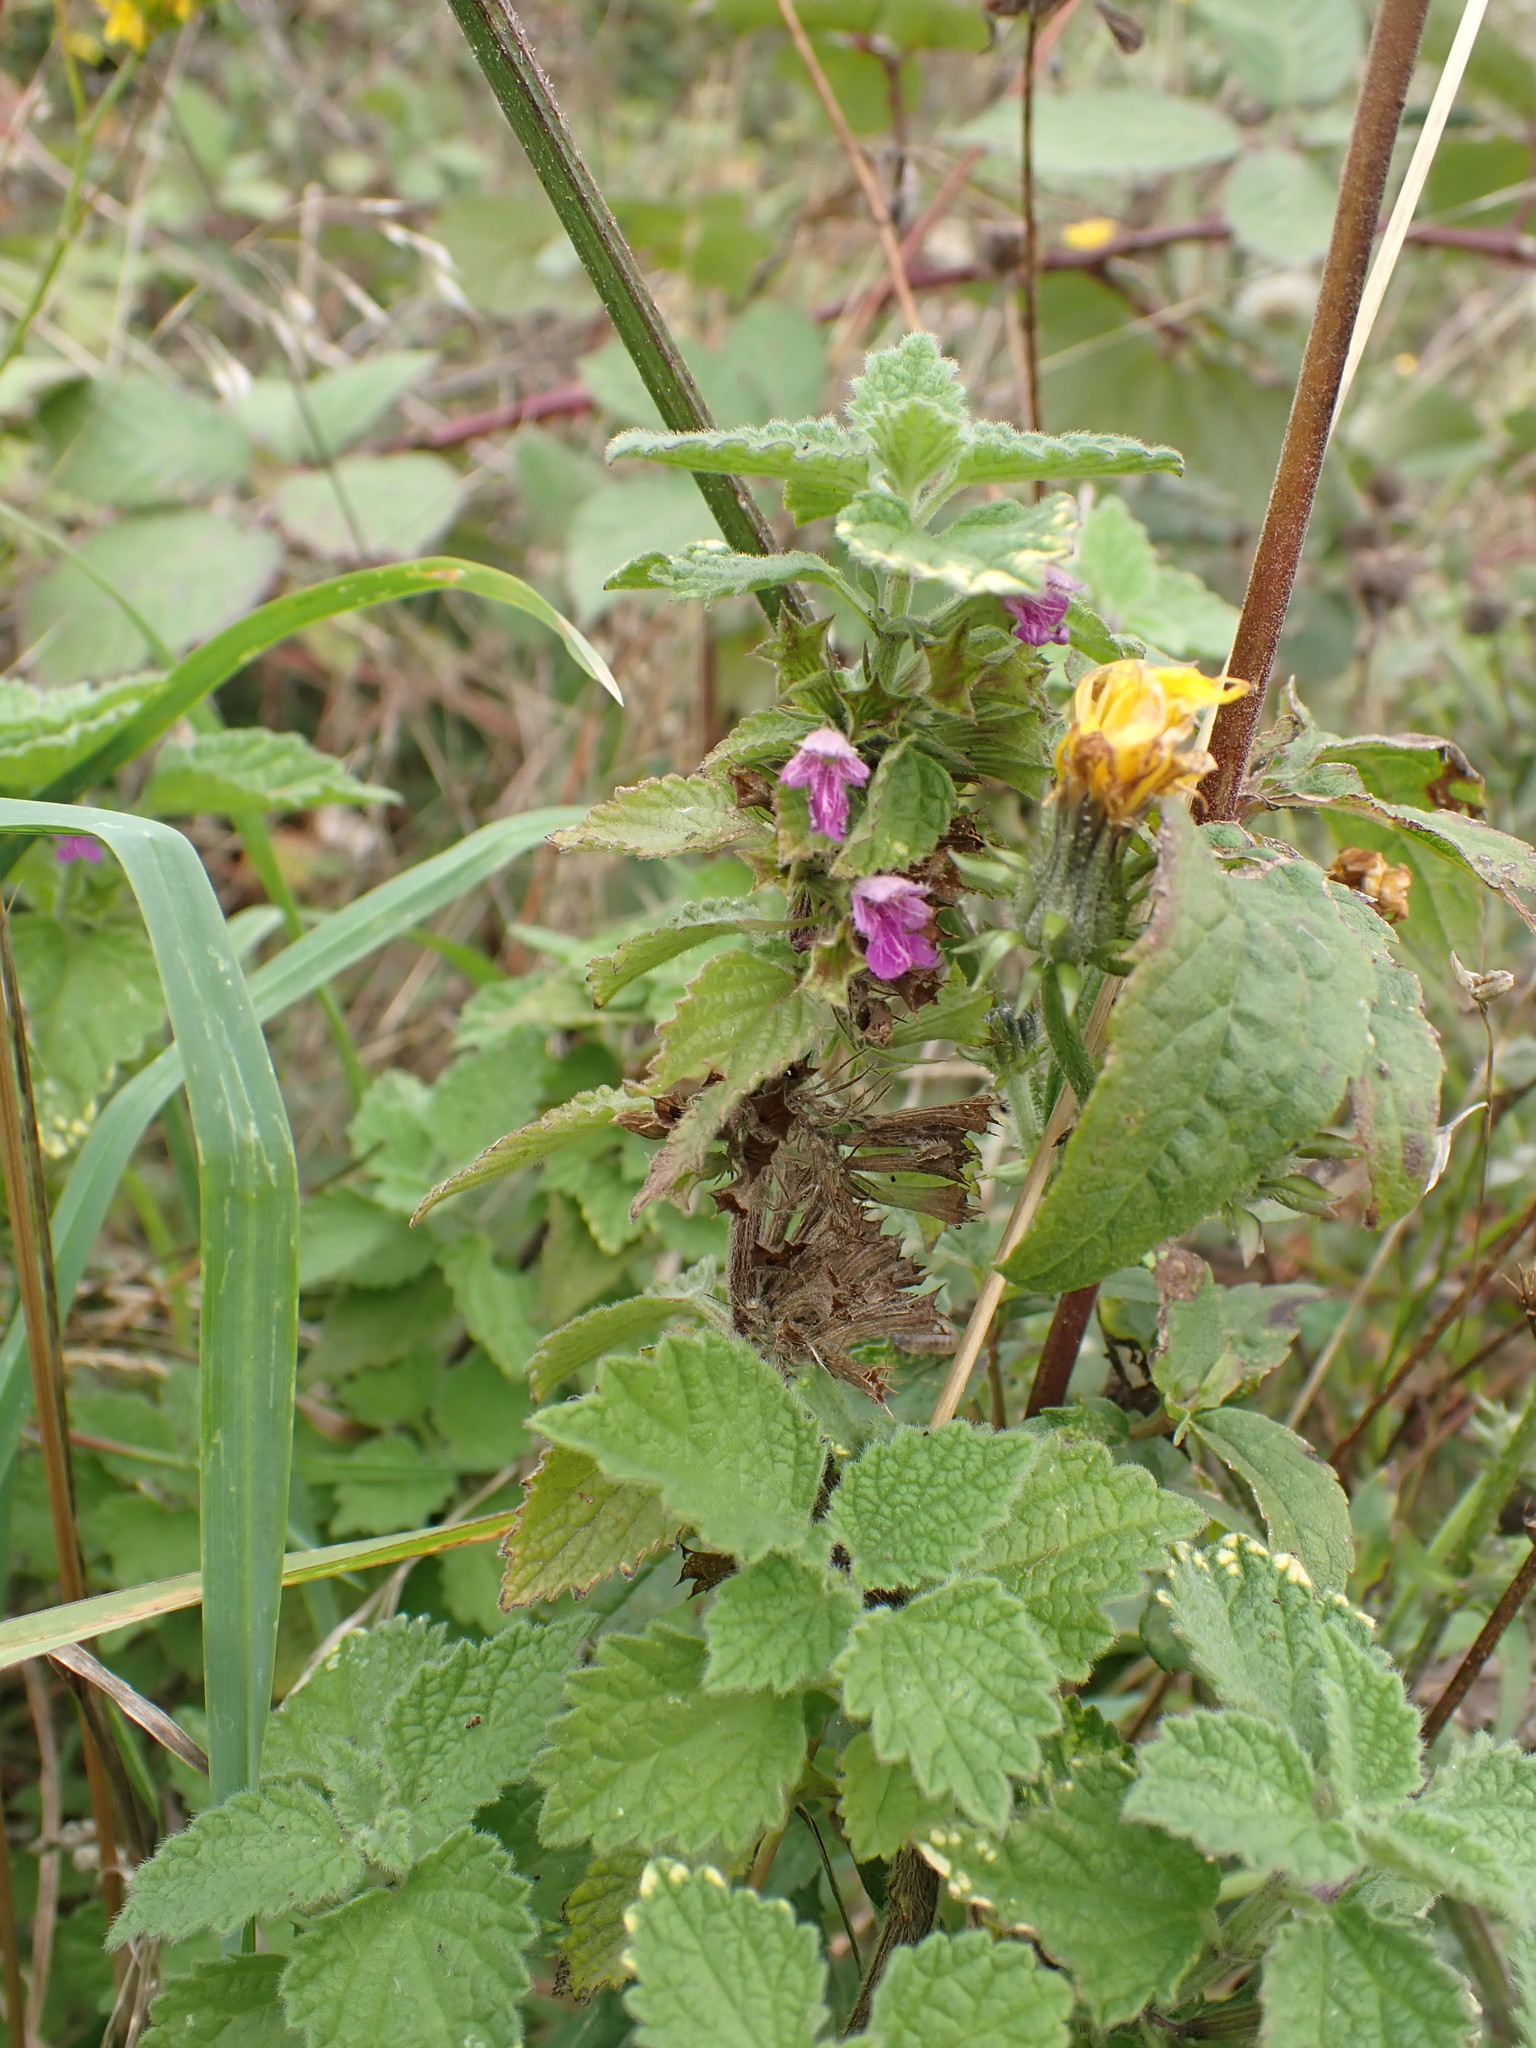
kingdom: Plantae
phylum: Tracheophyta
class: Magnoliopsida
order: Lamiales
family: Lamiaceae
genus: Ballota
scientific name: Ballota nigra
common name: Black horehound
